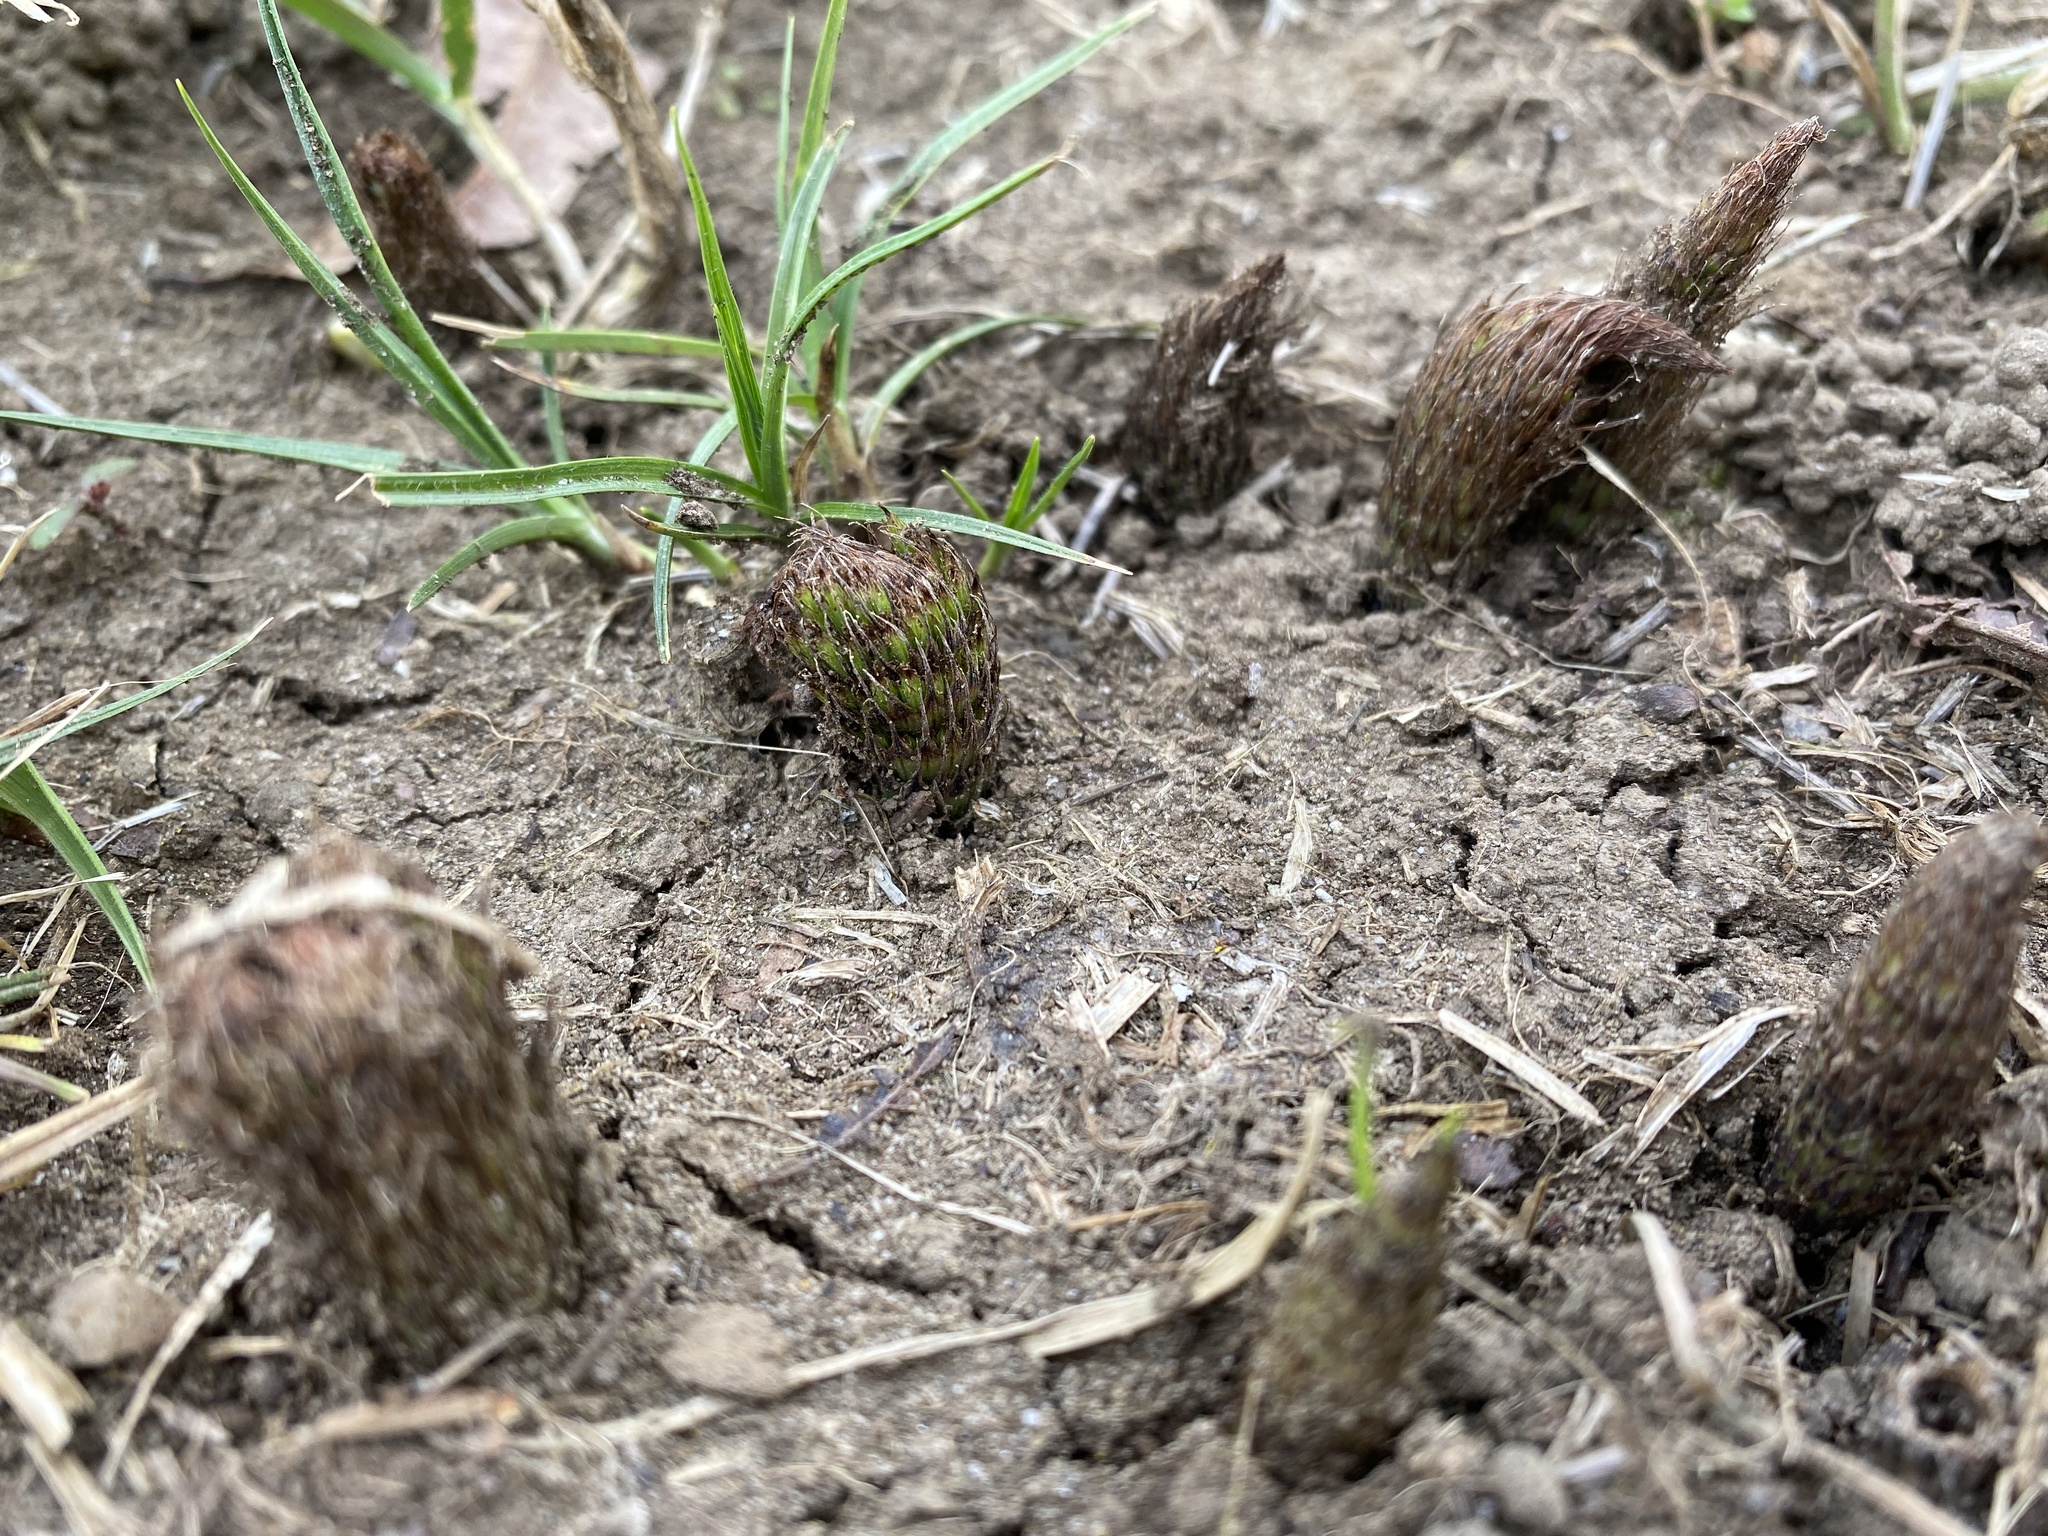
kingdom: Plantae
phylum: Tracheophyta
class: Polypodiopsida
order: Equisetales
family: Equisetaceae
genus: Equisetum
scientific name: Equisetum telmateia
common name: Great horsetail
